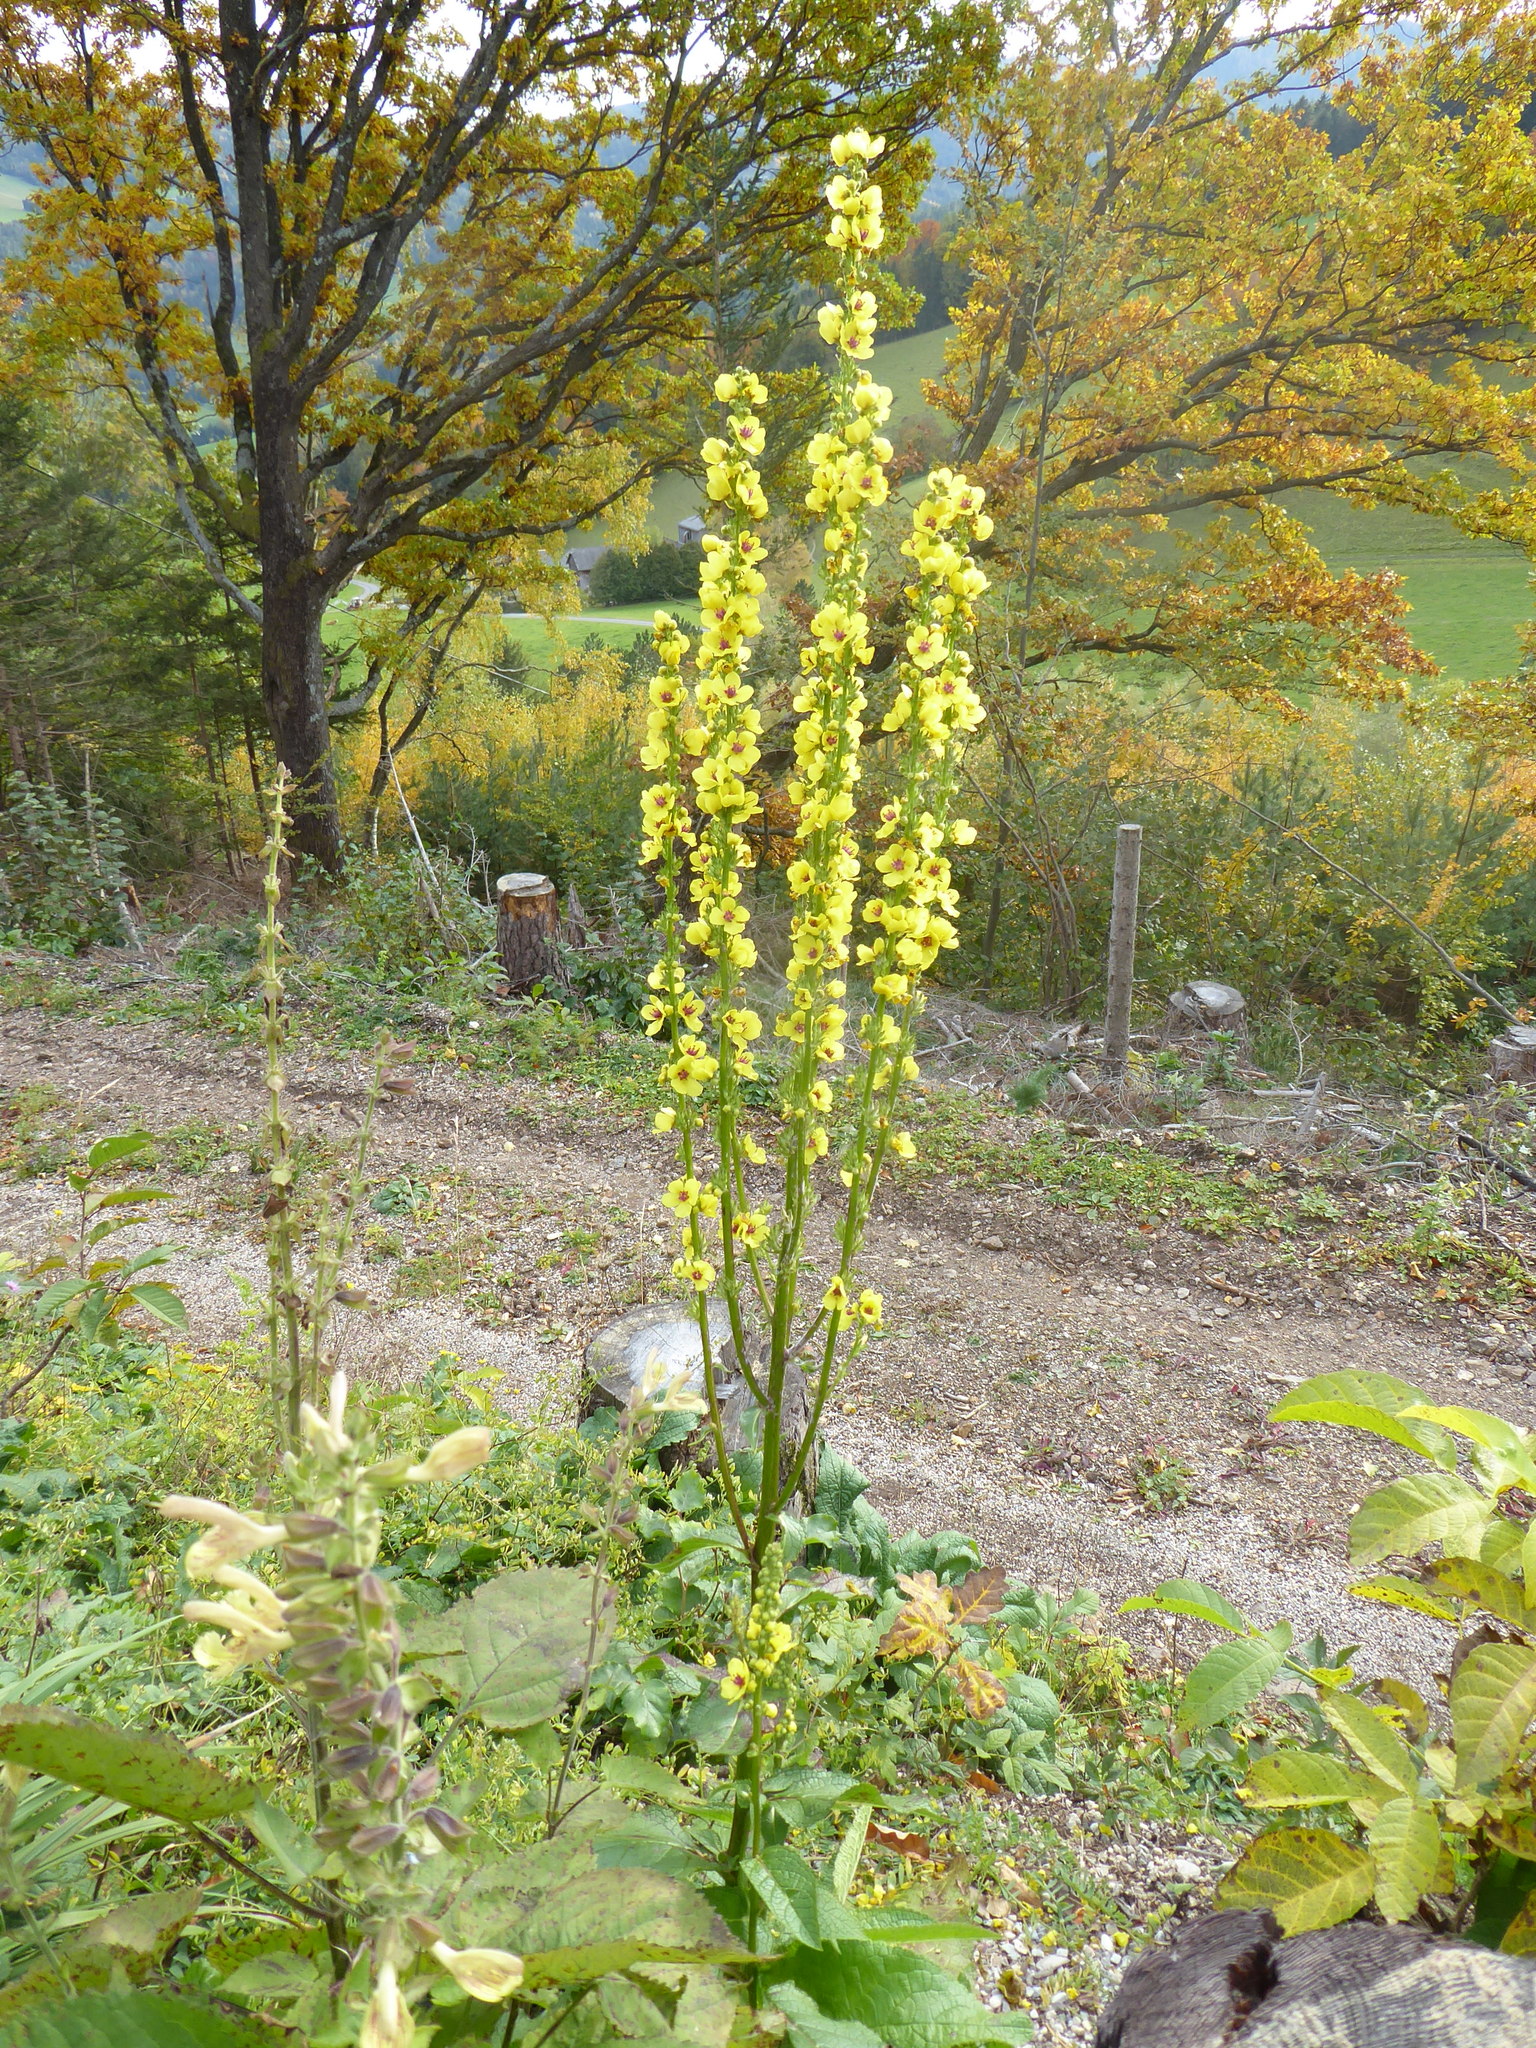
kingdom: Plantae
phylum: Tracheophyta
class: Magnoliopsida
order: Lamiales
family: Scrophulariaceae
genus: Verbascum
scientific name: Verbascum chaixii
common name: Nettle-leaved mullein
